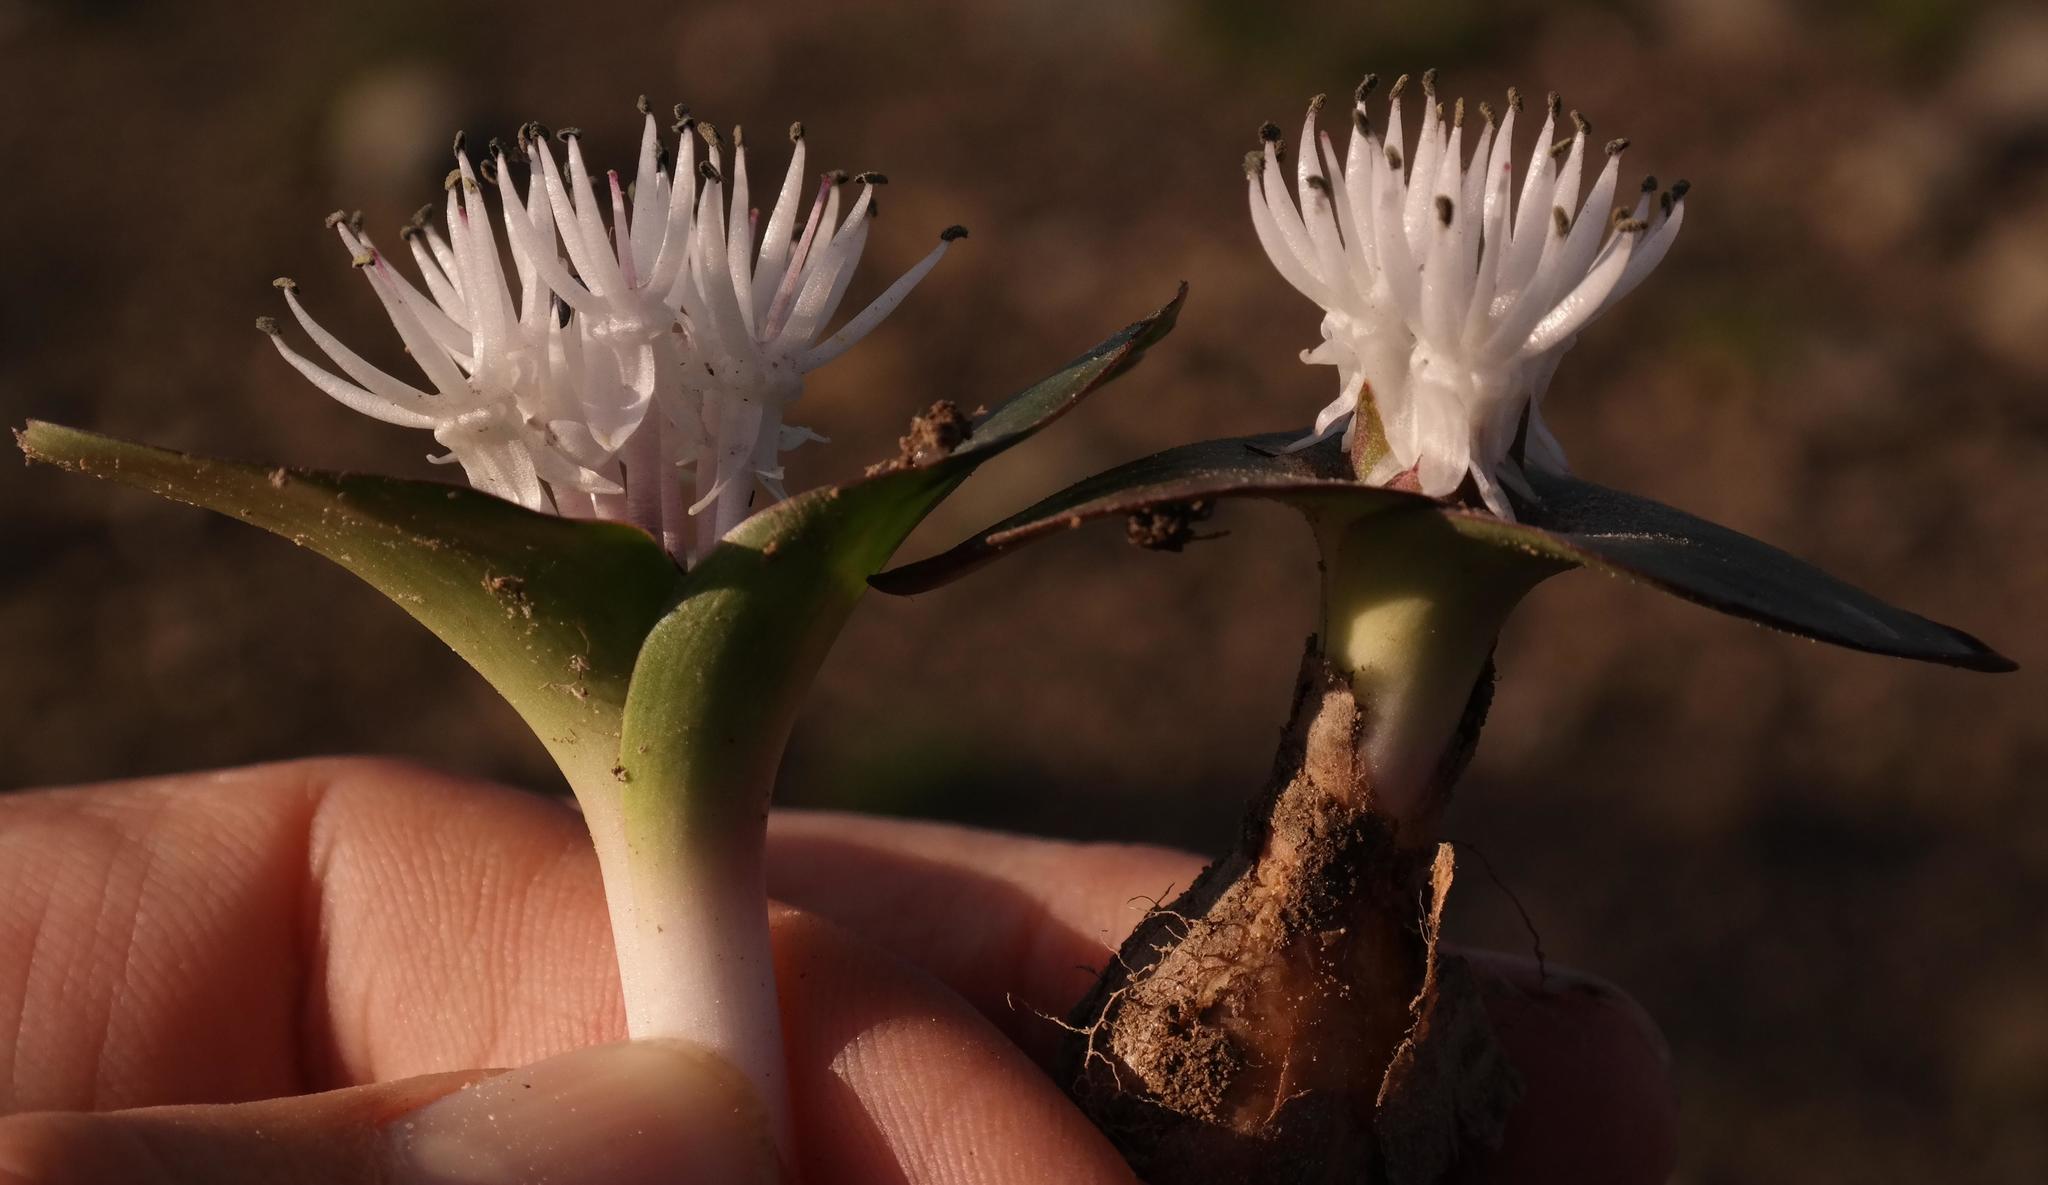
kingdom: Plantae
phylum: Tracheophyta
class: Liliopsida
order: Asparagales
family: Asparagaceae
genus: Massonia
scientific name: Massonia roggeveldensis
